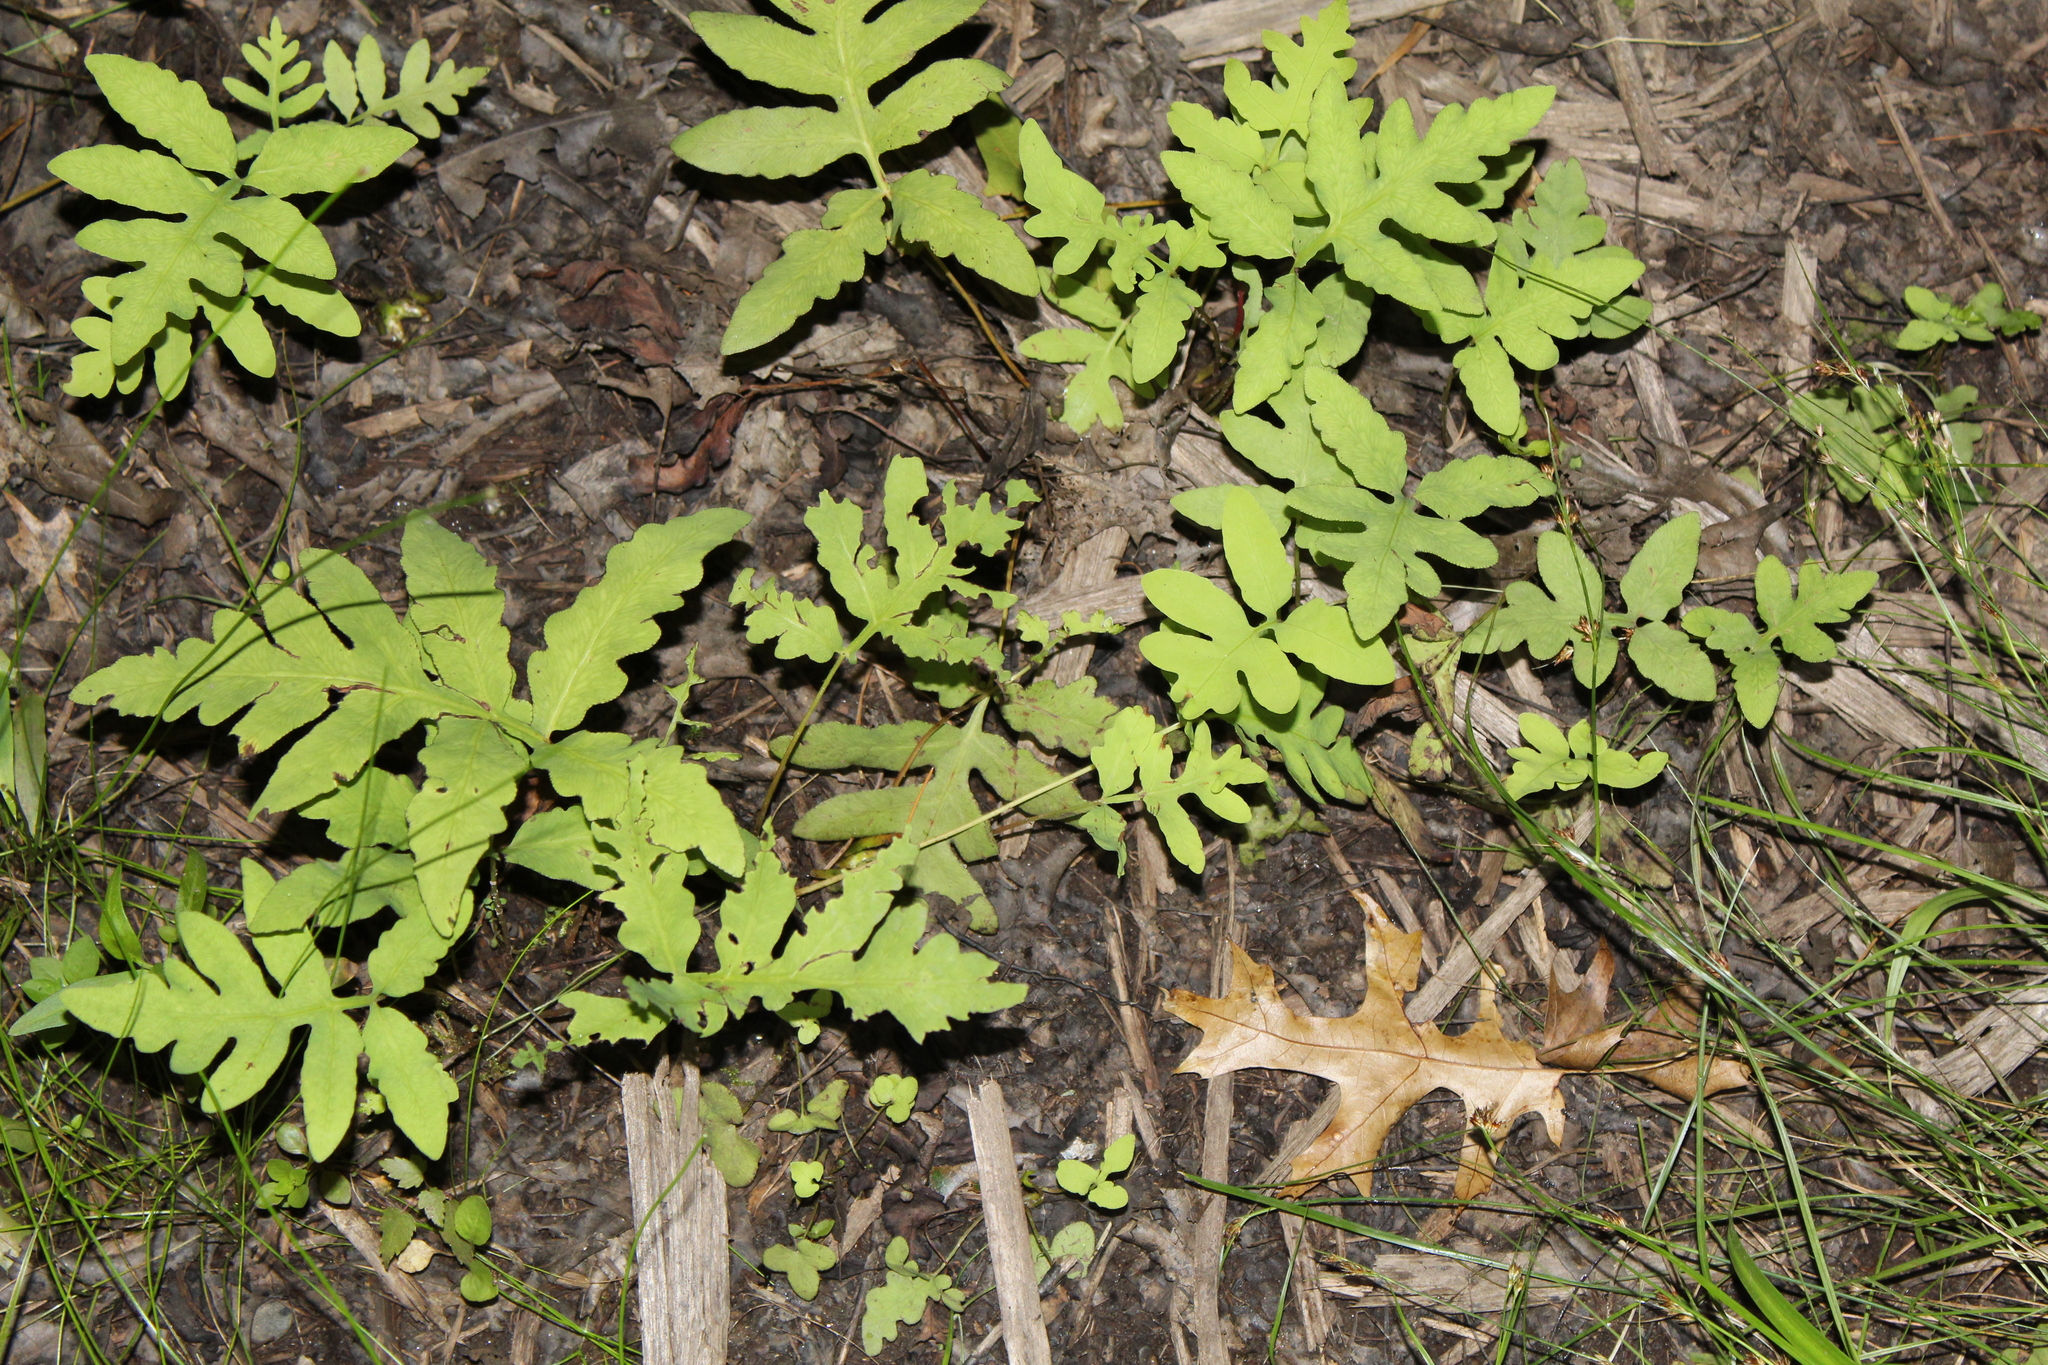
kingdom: Plantae
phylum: Tracheophyta
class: Polypodiopsida
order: Polypodiales
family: Onocleaceae
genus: Onoclea
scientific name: Onoclea sensibilis
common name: Sensitive fern
